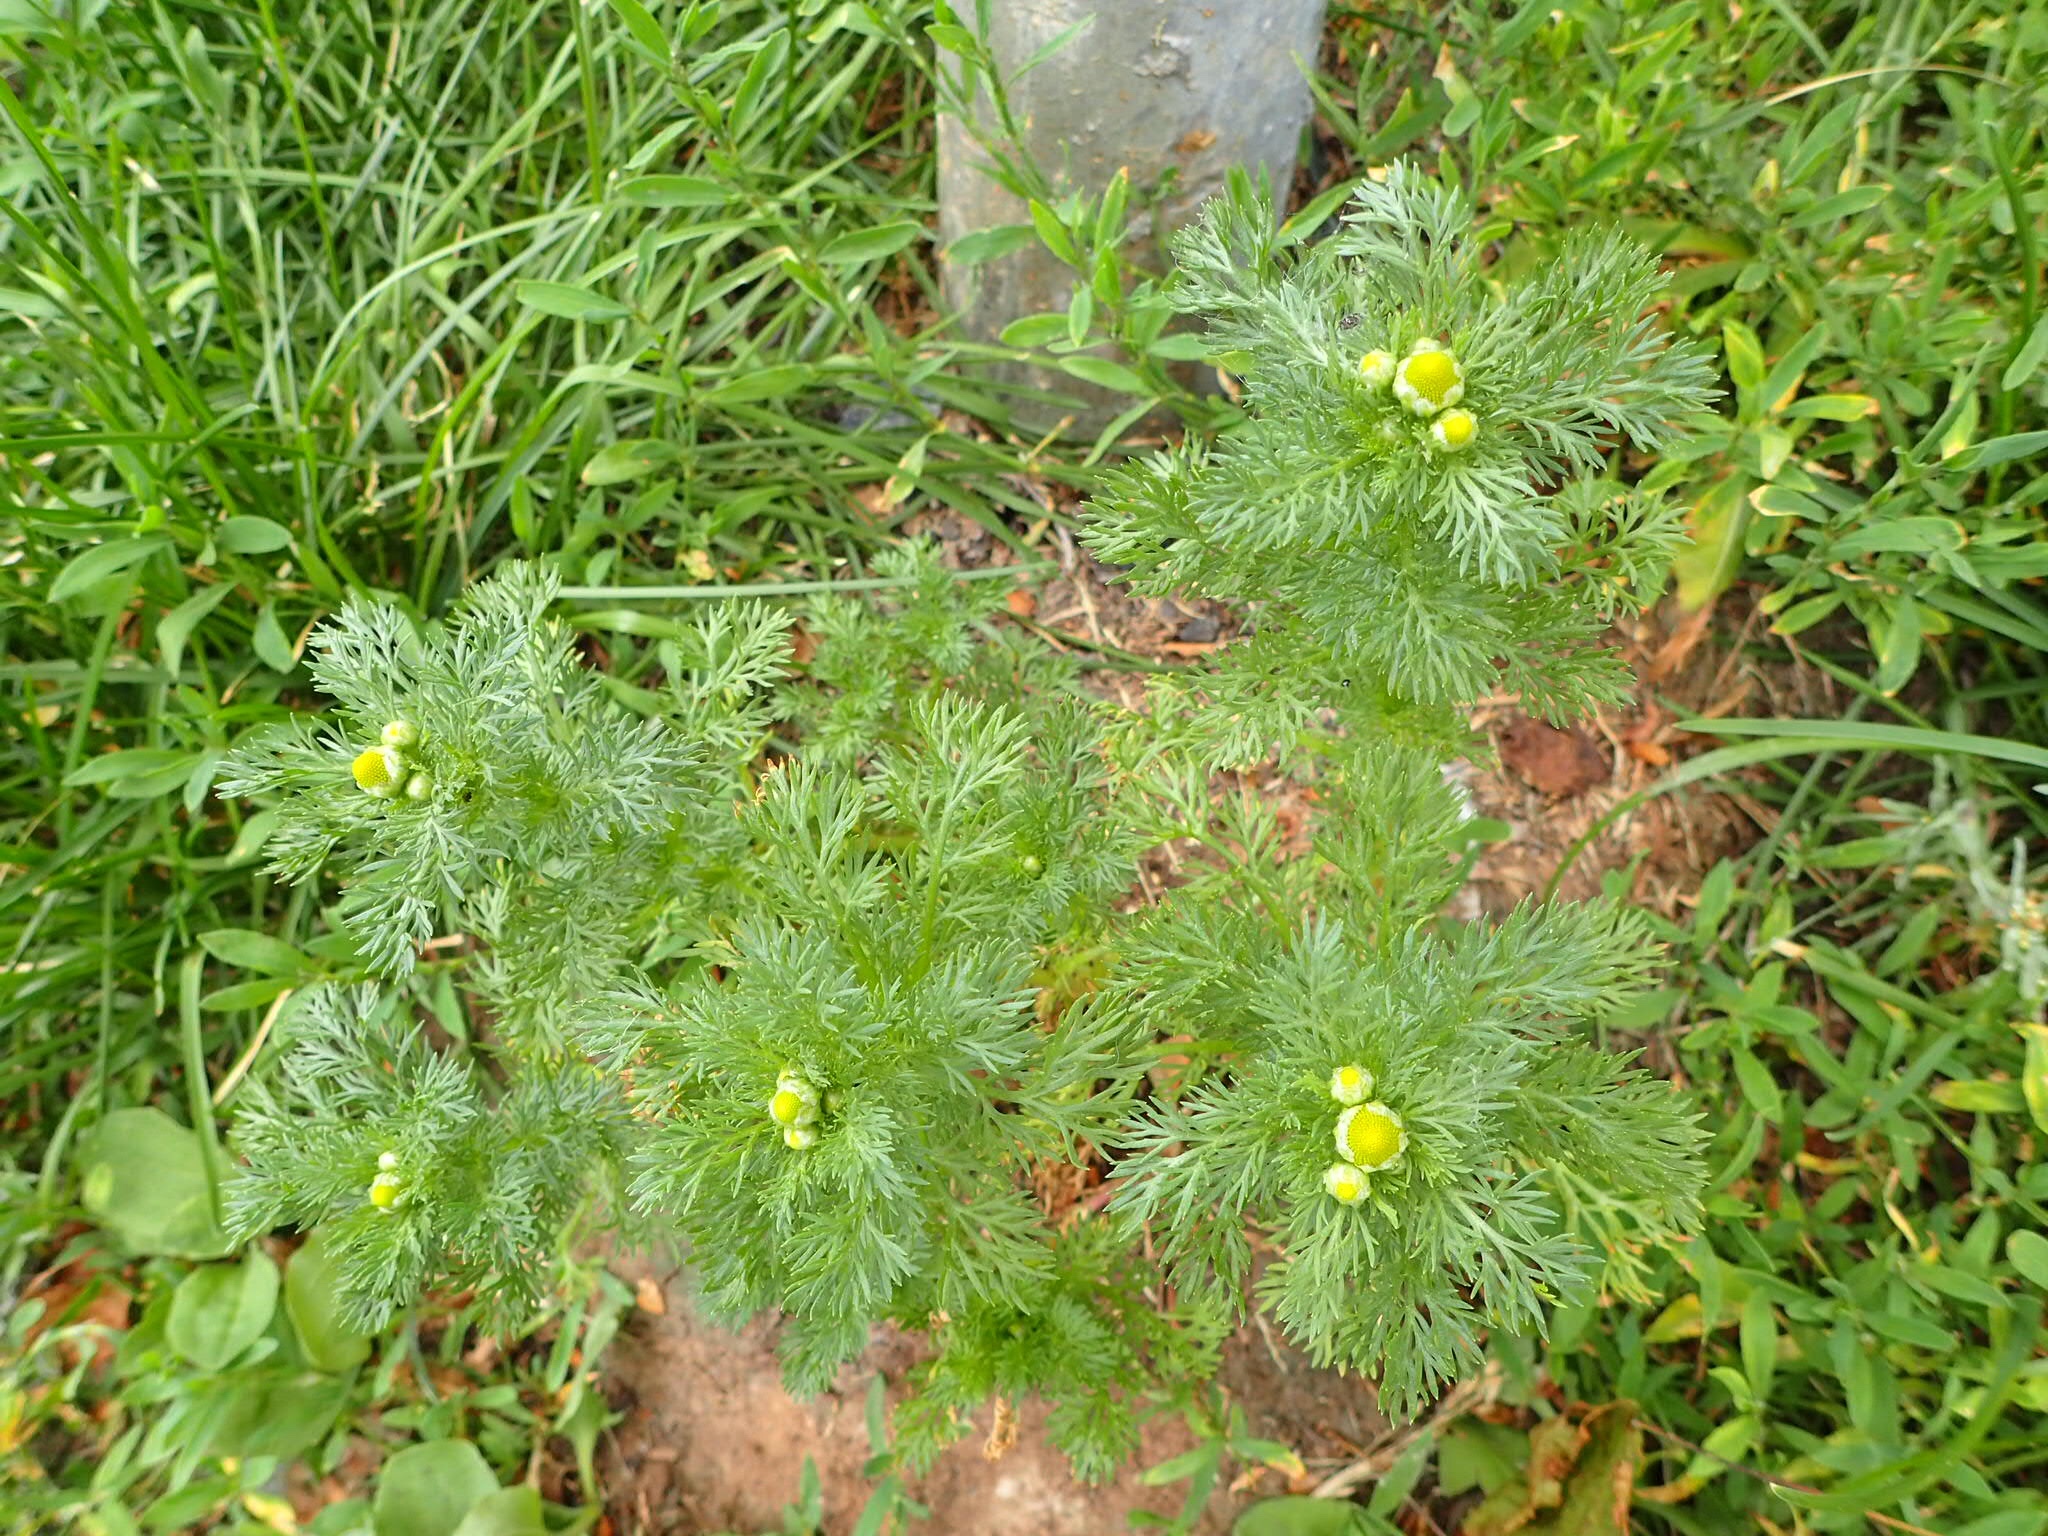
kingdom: Plantae
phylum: Tracheophyta
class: Magnoliopsida
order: Asterales
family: Asteraceae
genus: Matricaria
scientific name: Matricaria discoidea
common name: Disc mayweed
